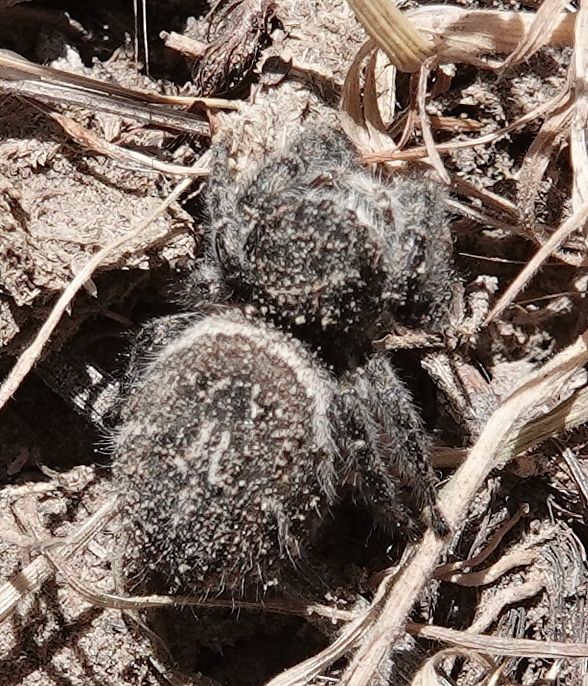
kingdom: Animalia
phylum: Arthropoda
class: Arachnida
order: Araneae
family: Salticidae
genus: Phidippus
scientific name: Phidippus purpuratus
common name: Marbled purple jumping spider
